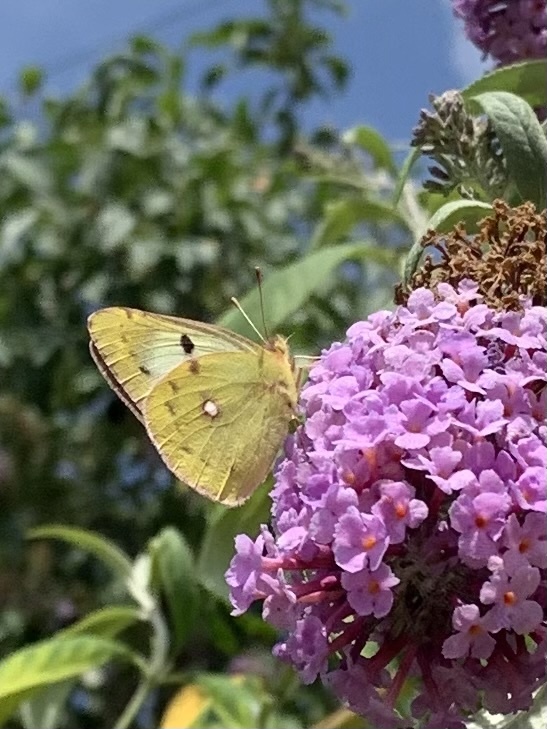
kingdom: Animalia
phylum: Arthropoda
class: Insecta
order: Lepidoptera
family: Pieridae
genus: Colias
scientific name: Colias hyale
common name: Pale clouded yellow
